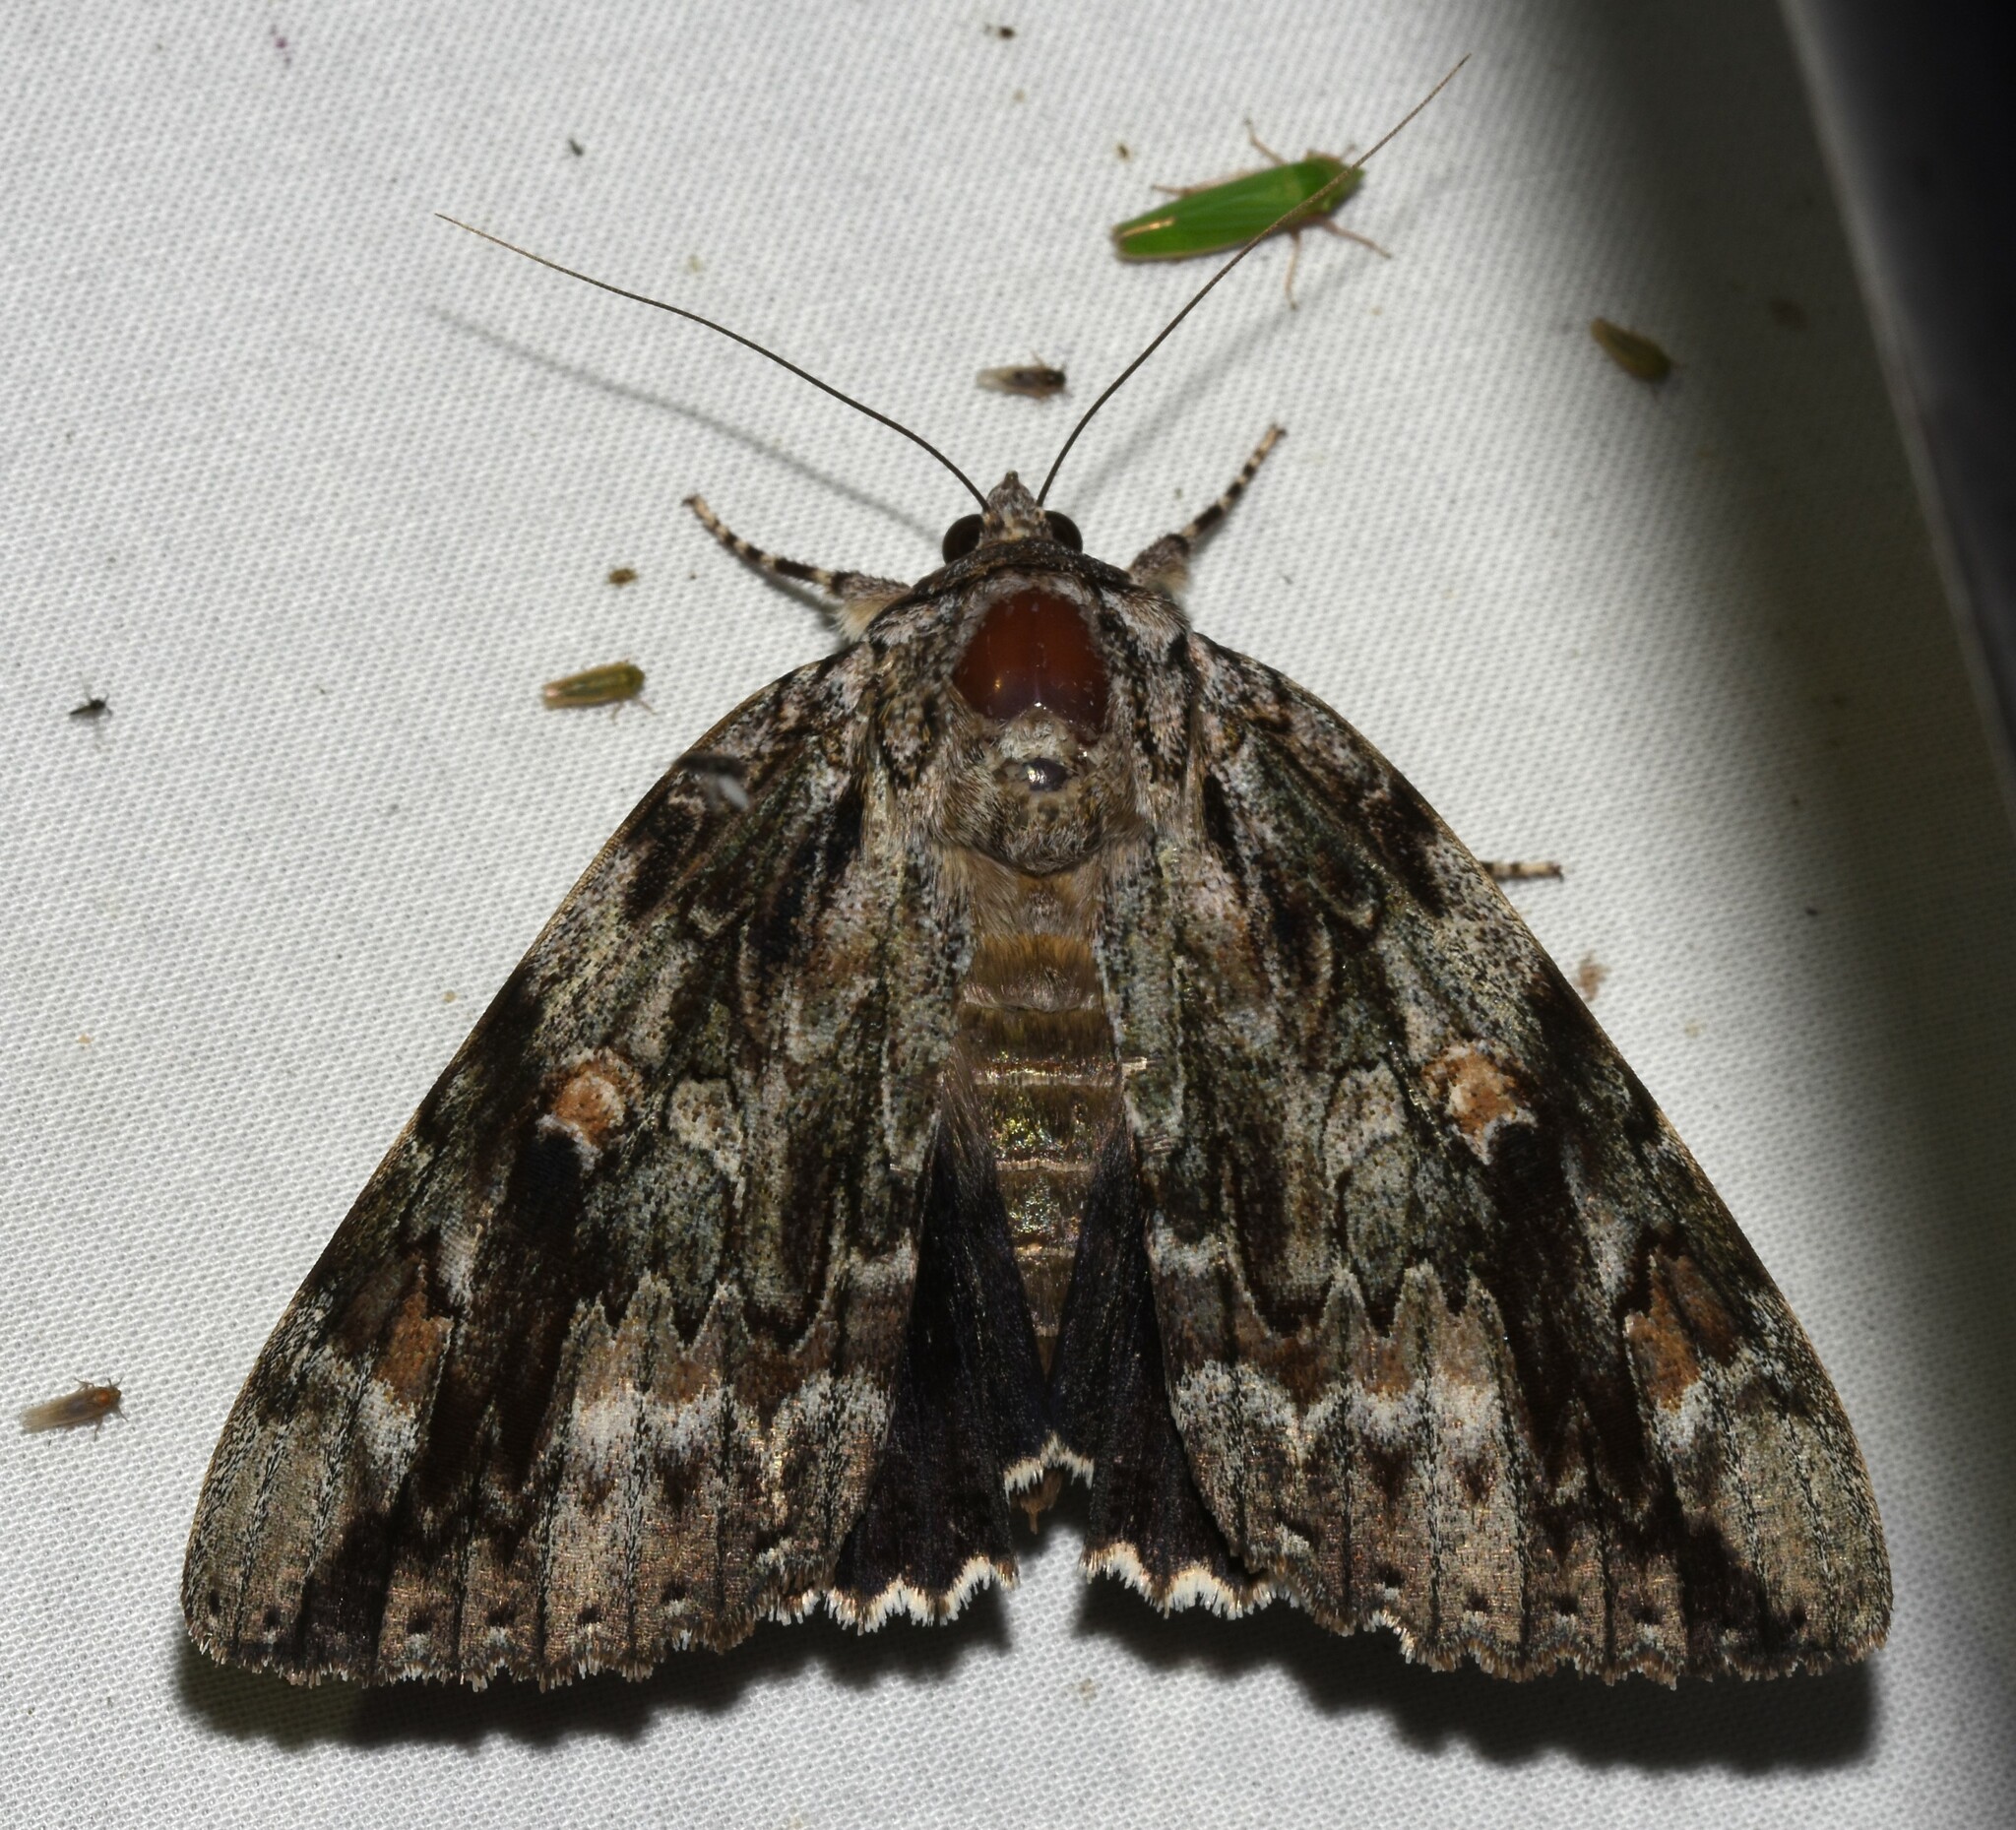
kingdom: Animalia
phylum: Arthropoda
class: Insecta
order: Lepidoptera
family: Erebidae
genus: Catocala
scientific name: Catocala maestosa
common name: Sad underwing
